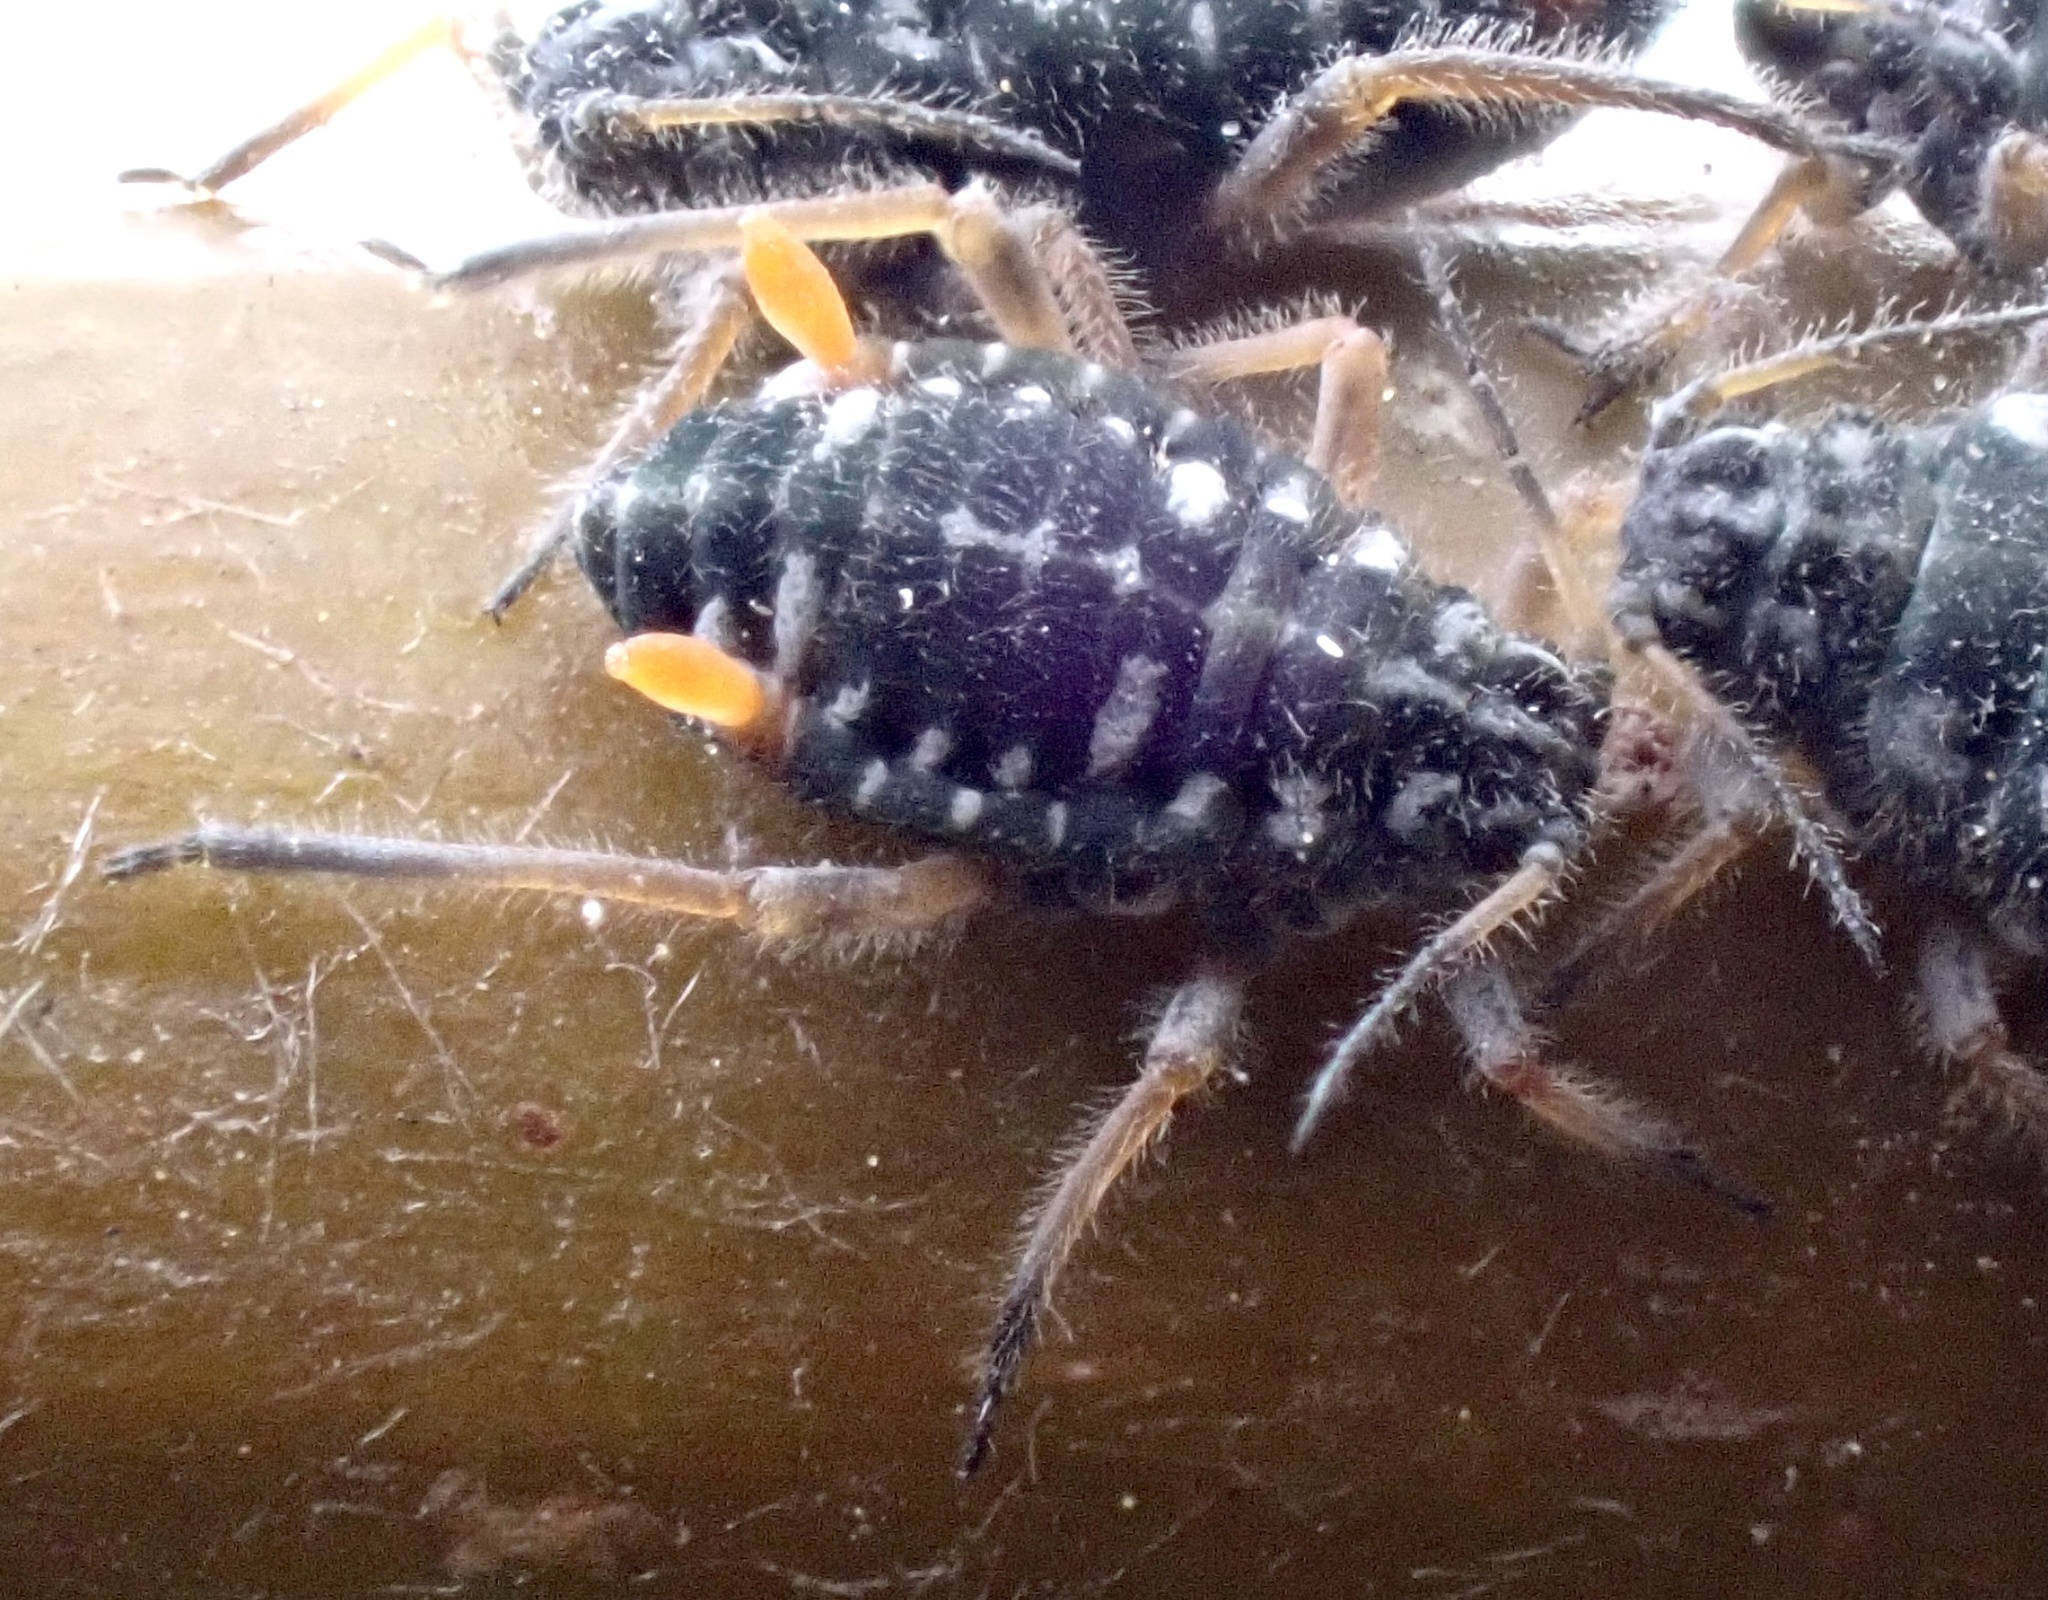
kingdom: Animalia
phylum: Arthropoda
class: Insecta
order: Hemiptera
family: Aphididae
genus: Pterocomma
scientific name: Pterocomma salicis
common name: Aphid
